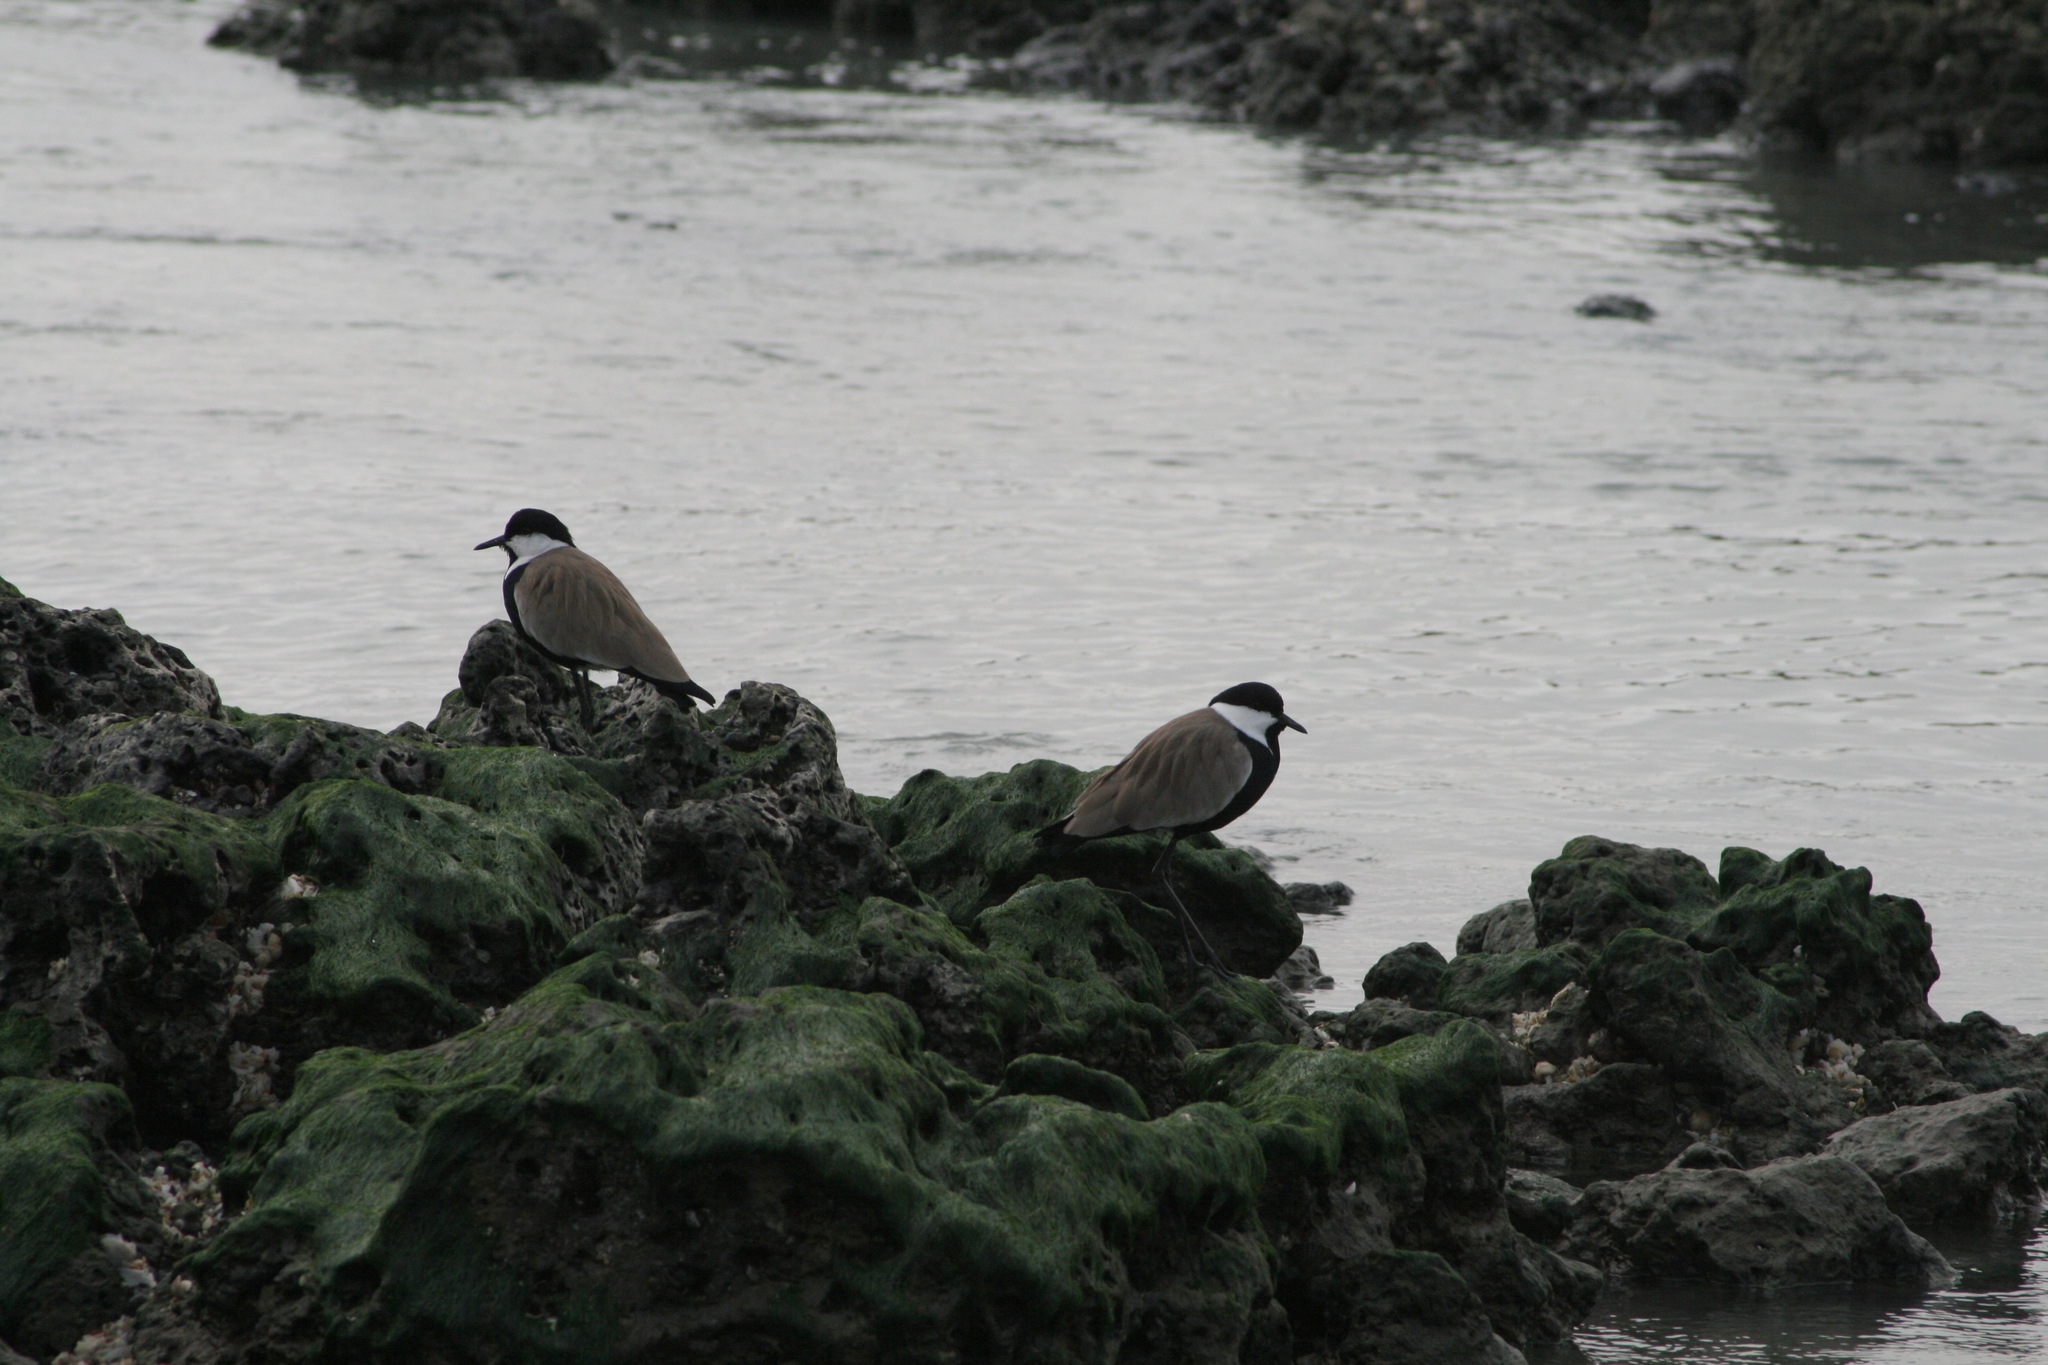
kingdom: Animalia
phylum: Chordata
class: Aves
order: Charadriiformes
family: Charadriidae
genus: Vanellus
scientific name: Vanellus spinosus
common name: Spur-winged lapwing
